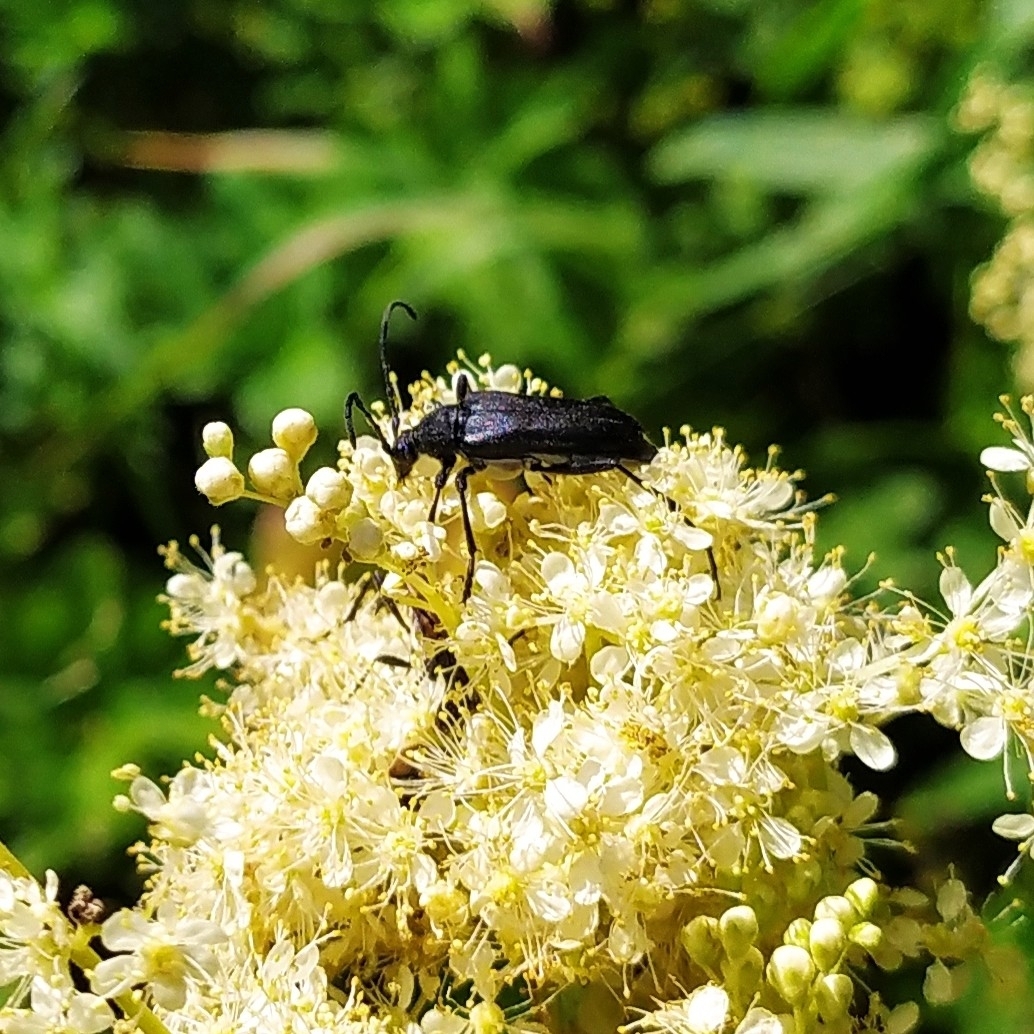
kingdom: Animalia
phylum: Arthropoda
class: Insecta
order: Coleoptera
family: Cerambycidae
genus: Leptura
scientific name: Leptura aethiops
